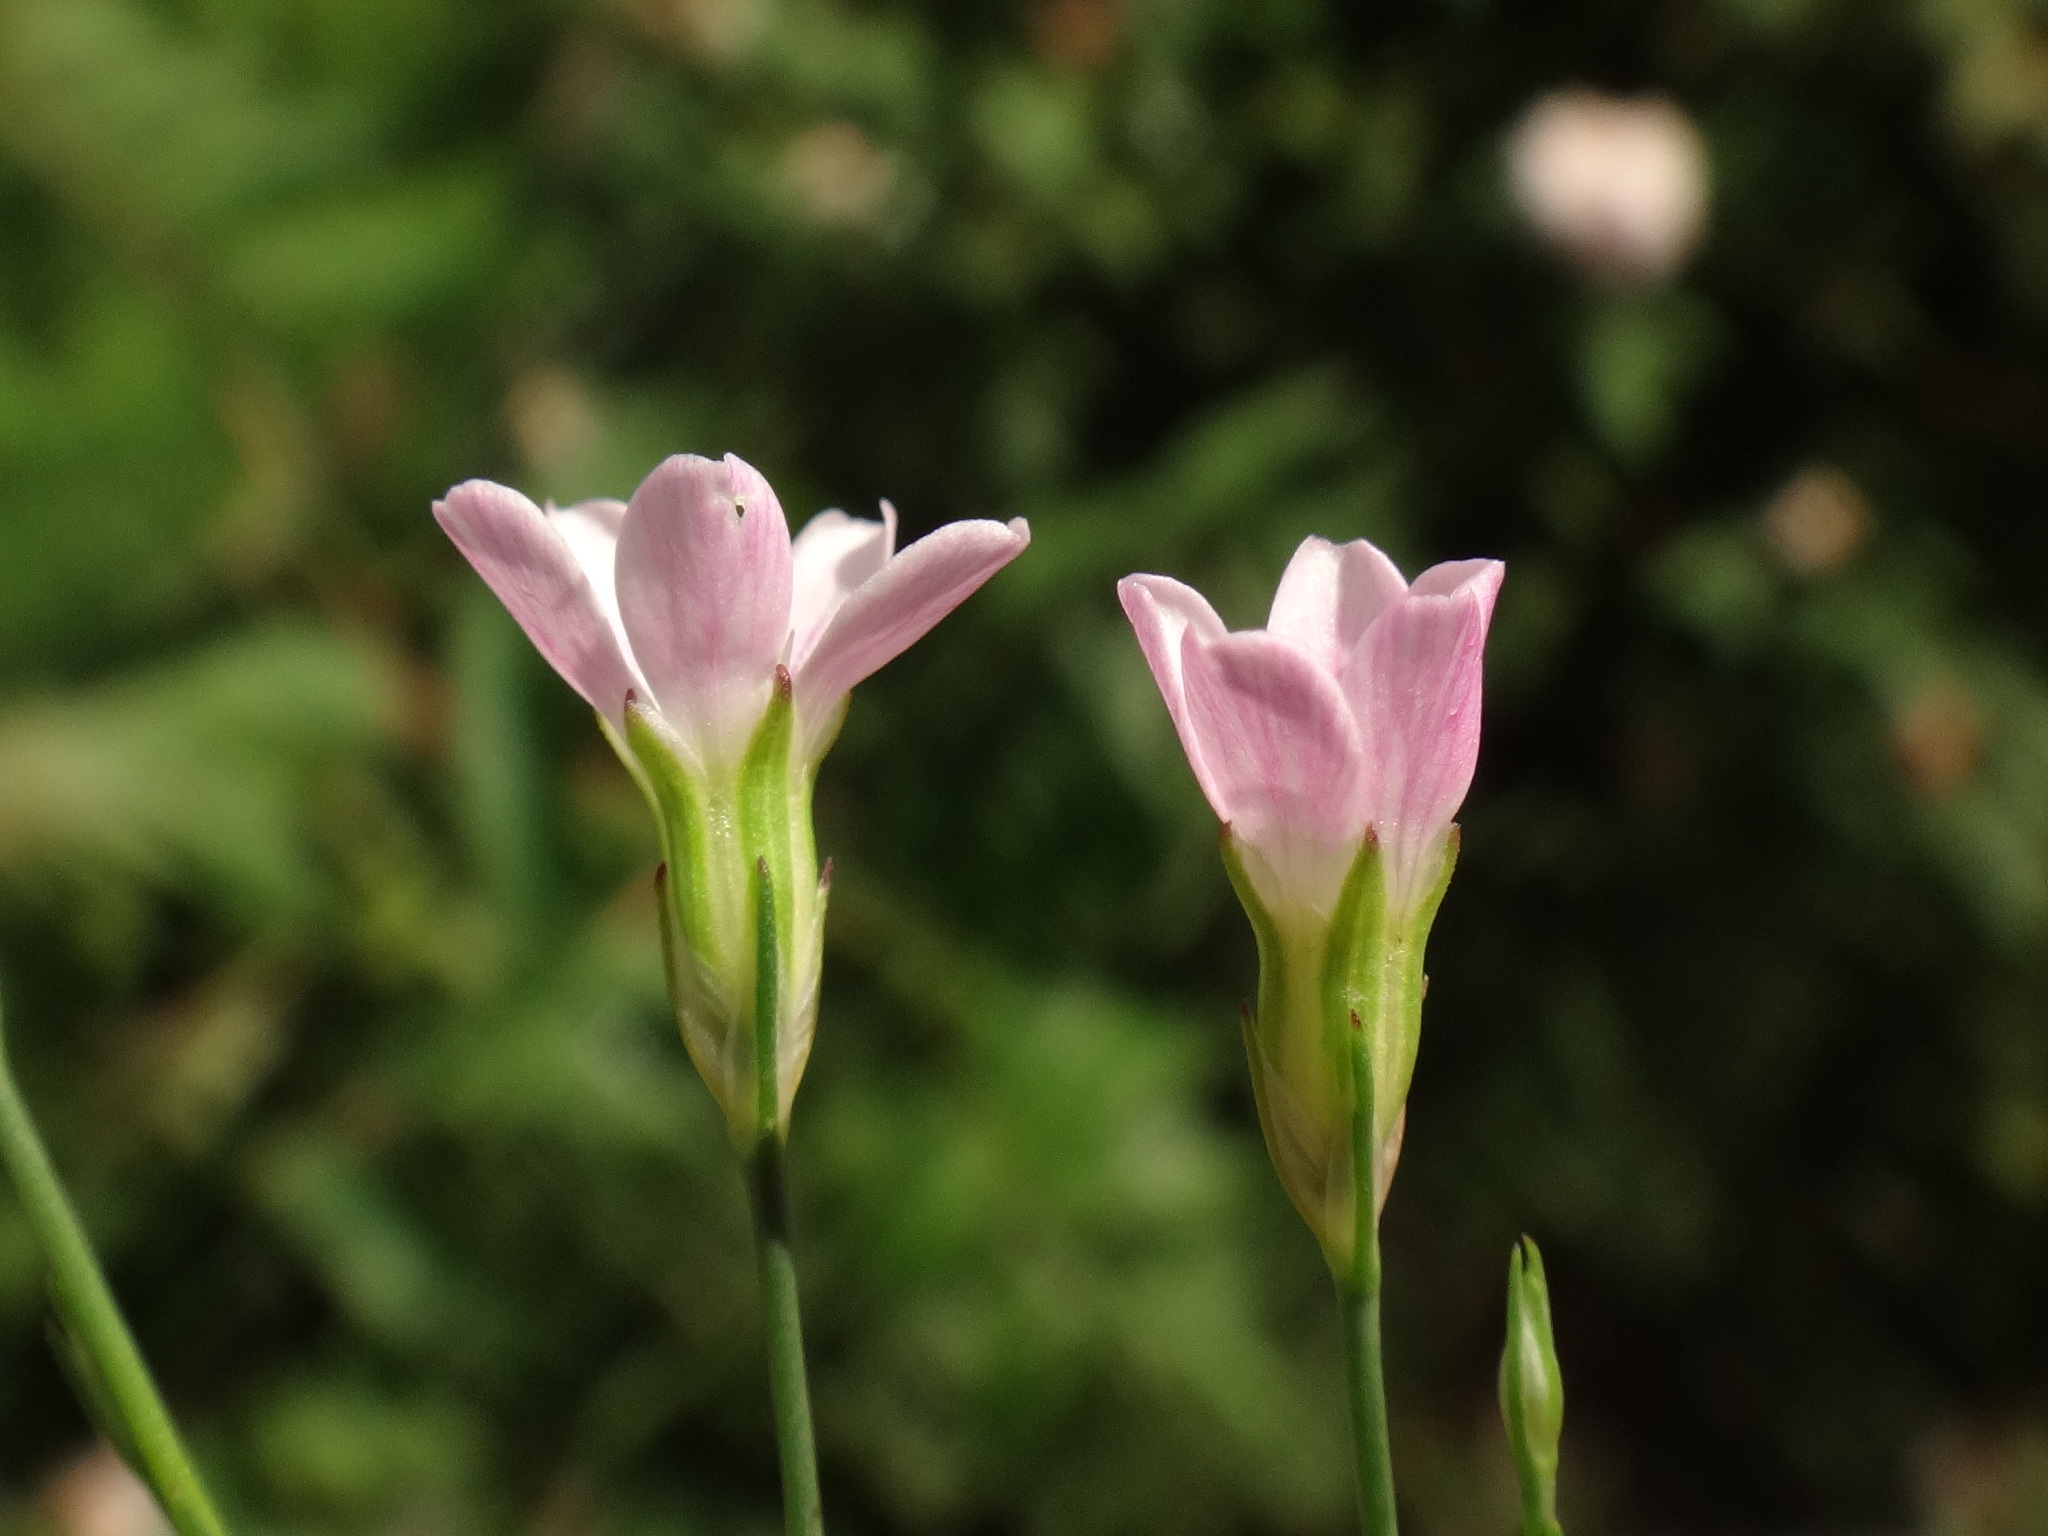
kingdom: Plantae
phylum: Tracheophyta
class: Magnoliopsida
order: Caryophyllales
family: Caryophyllaceae
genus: Petrorhagia
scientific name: Petrorhagia saxifraga
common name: Tunicflower
